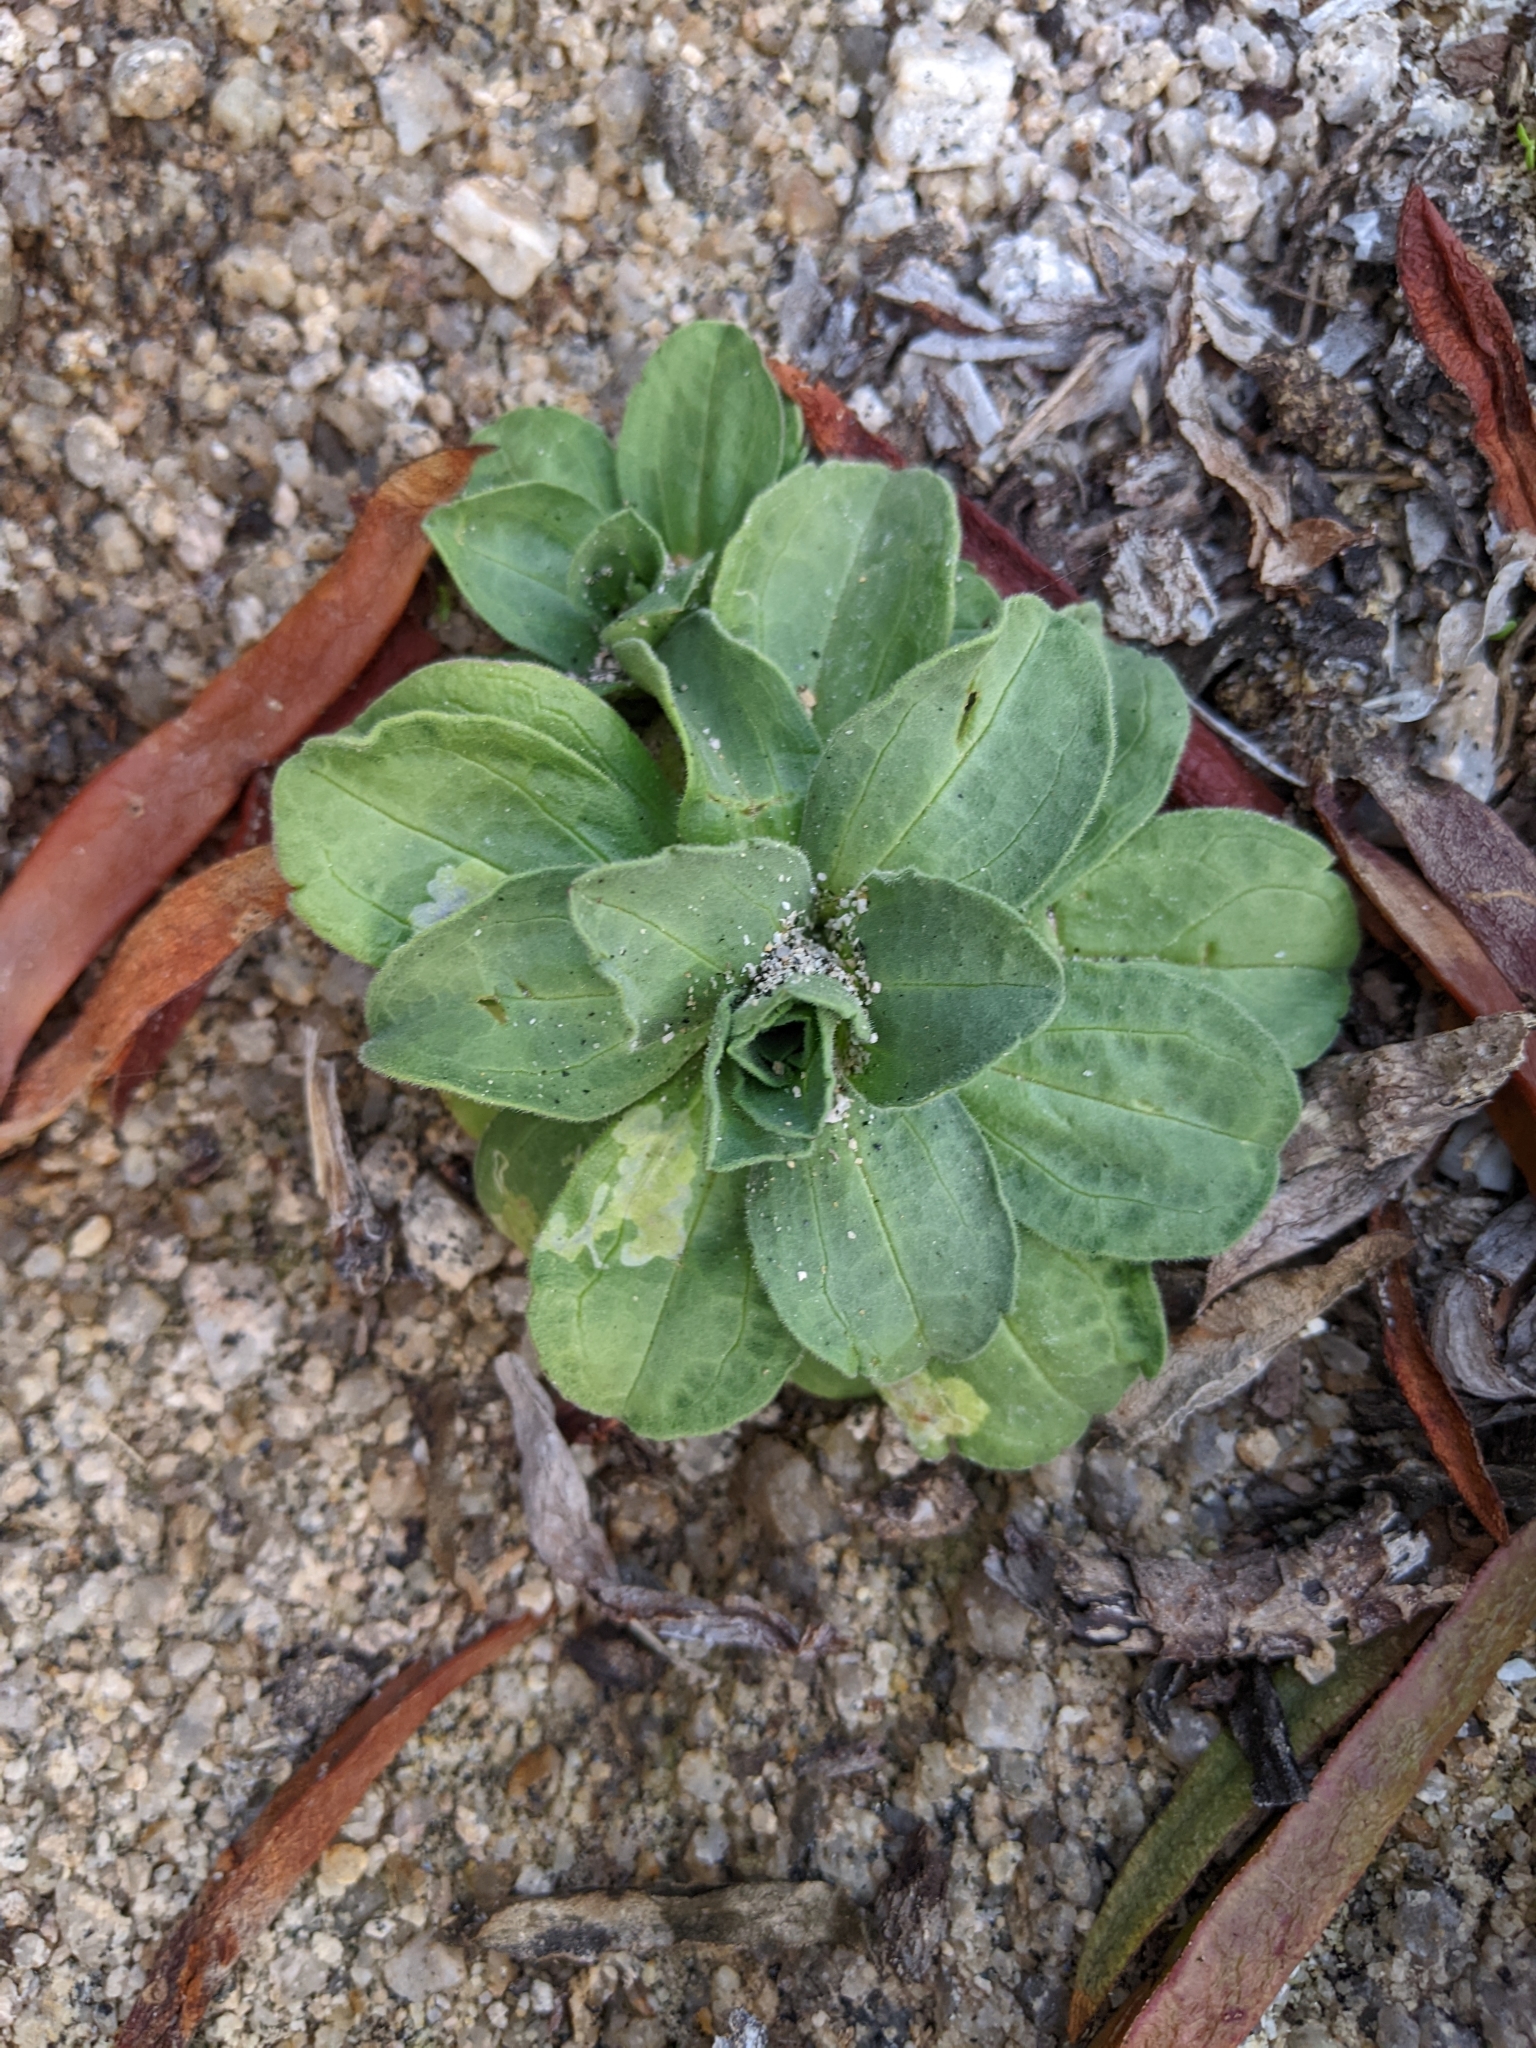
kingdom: Plantae
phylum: Tracheophyta
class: Magnoliopsida
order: Asterales
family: Asteraceae
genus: Erigeron
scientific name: Erigeron glaucus
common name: Seaside daisy
